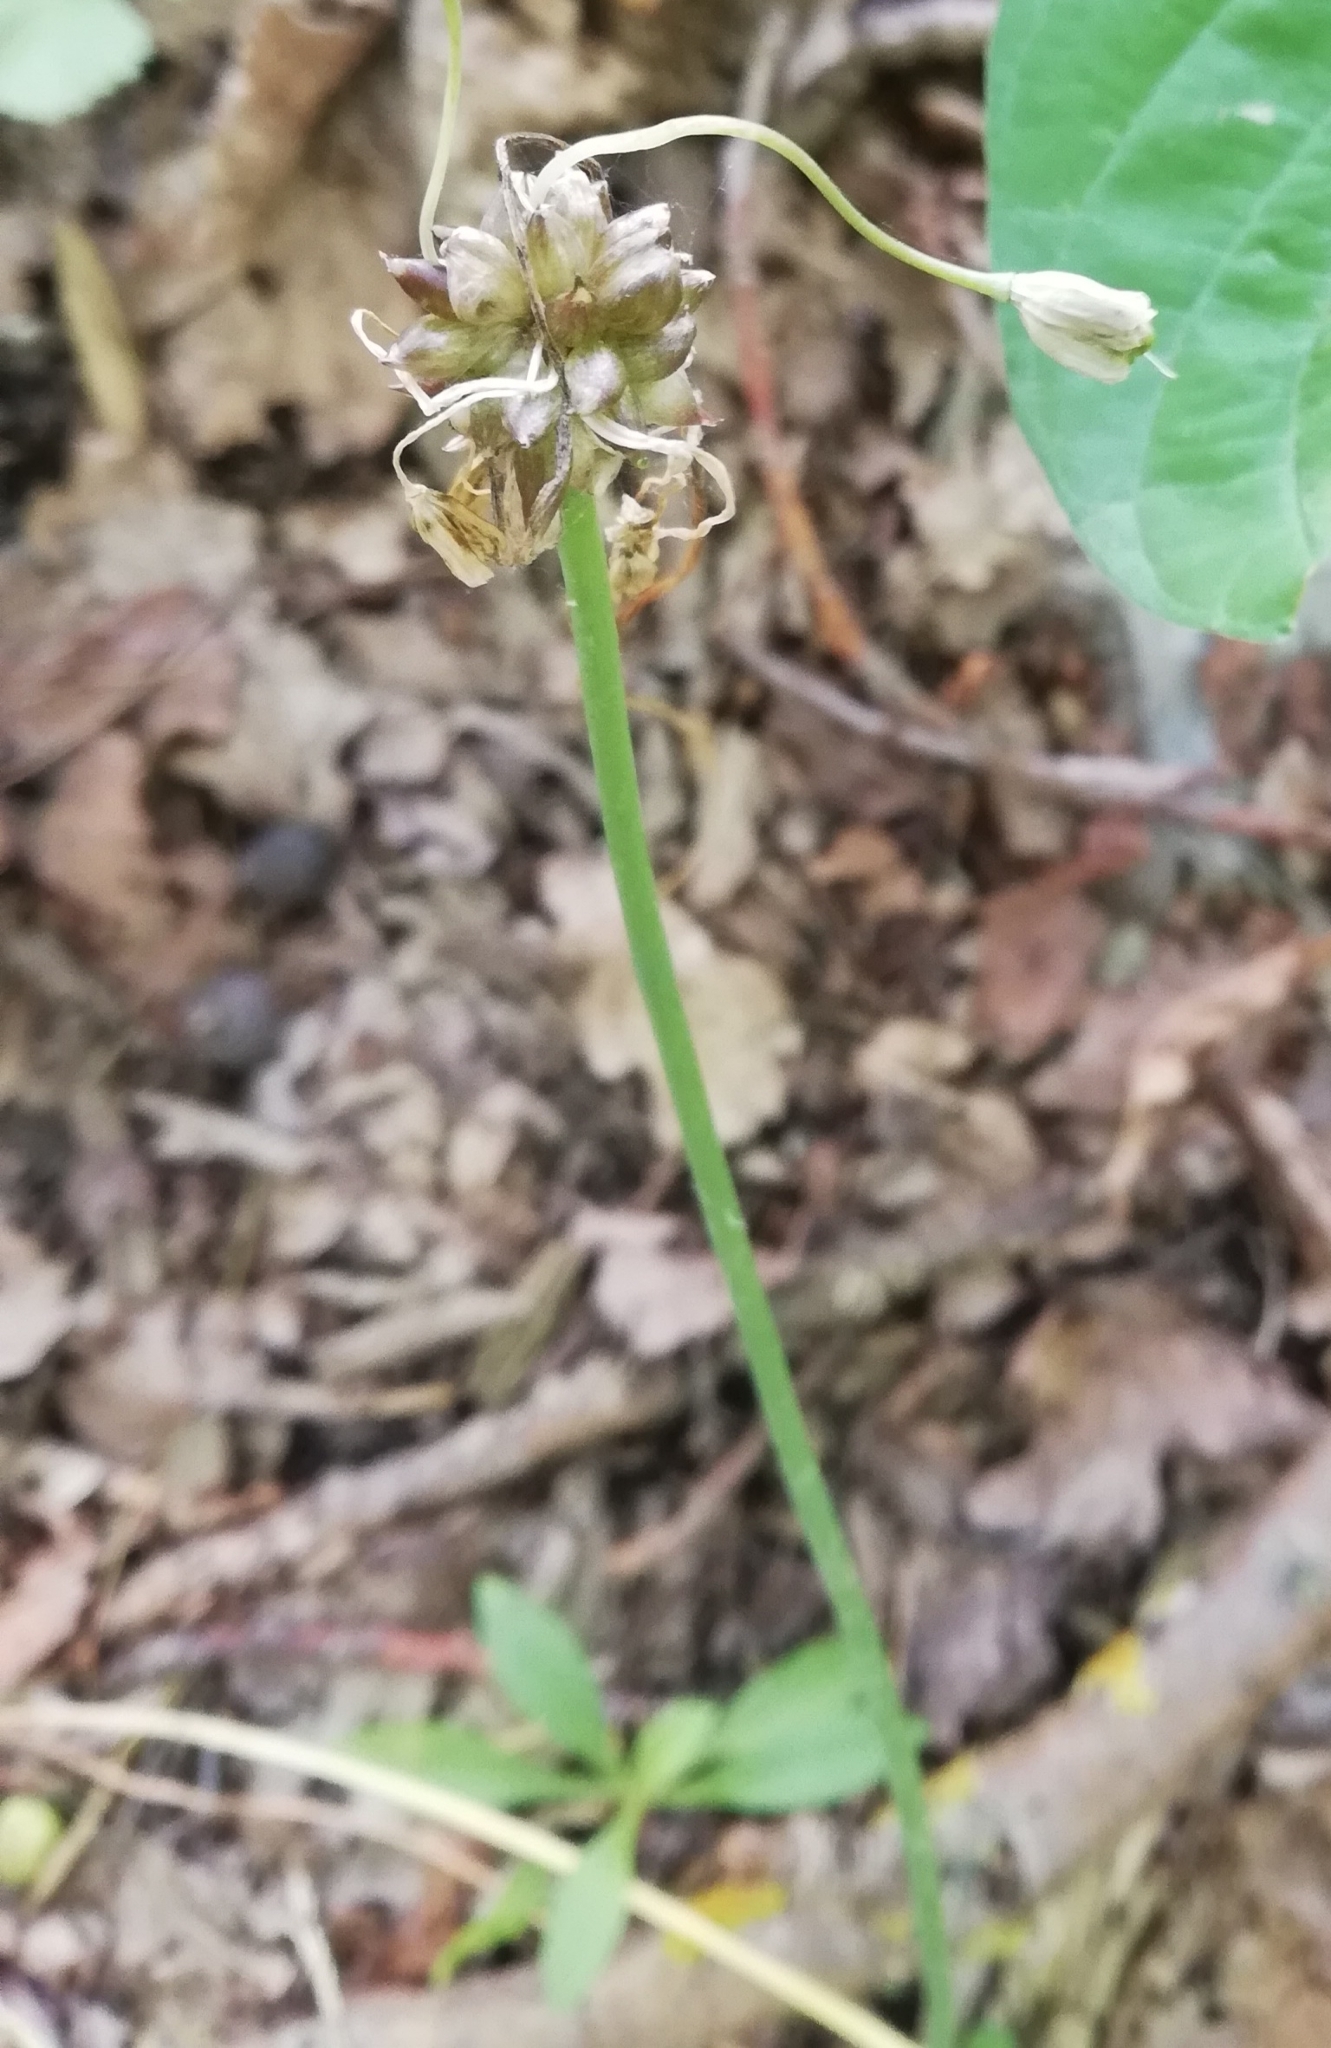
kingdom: Plantae
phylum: Tracheophyta
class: Liliopsida
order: Asparagales
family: Amaryllidaceae
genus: Allium
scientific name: Allium oleraceum
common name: Field garlic
